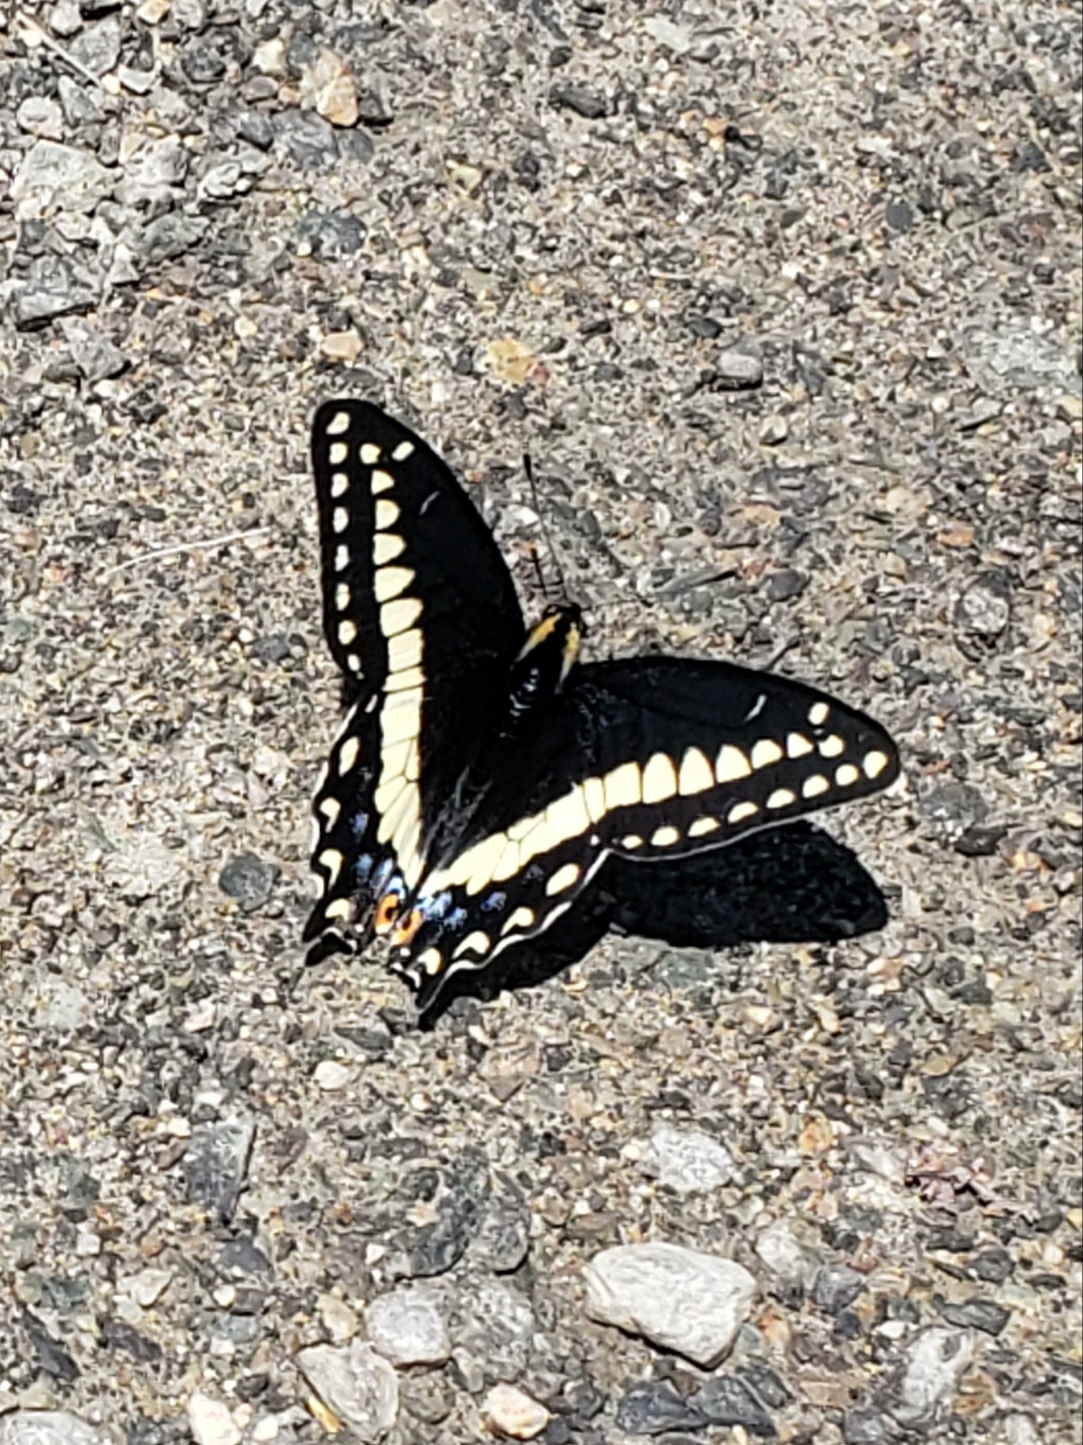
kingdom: Animalia
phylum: Arthropoda
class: Insecta
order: Lepidoptera
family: Papilionidae
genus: Papilio
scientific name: Papilio indra
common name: Cliff swallowtail
